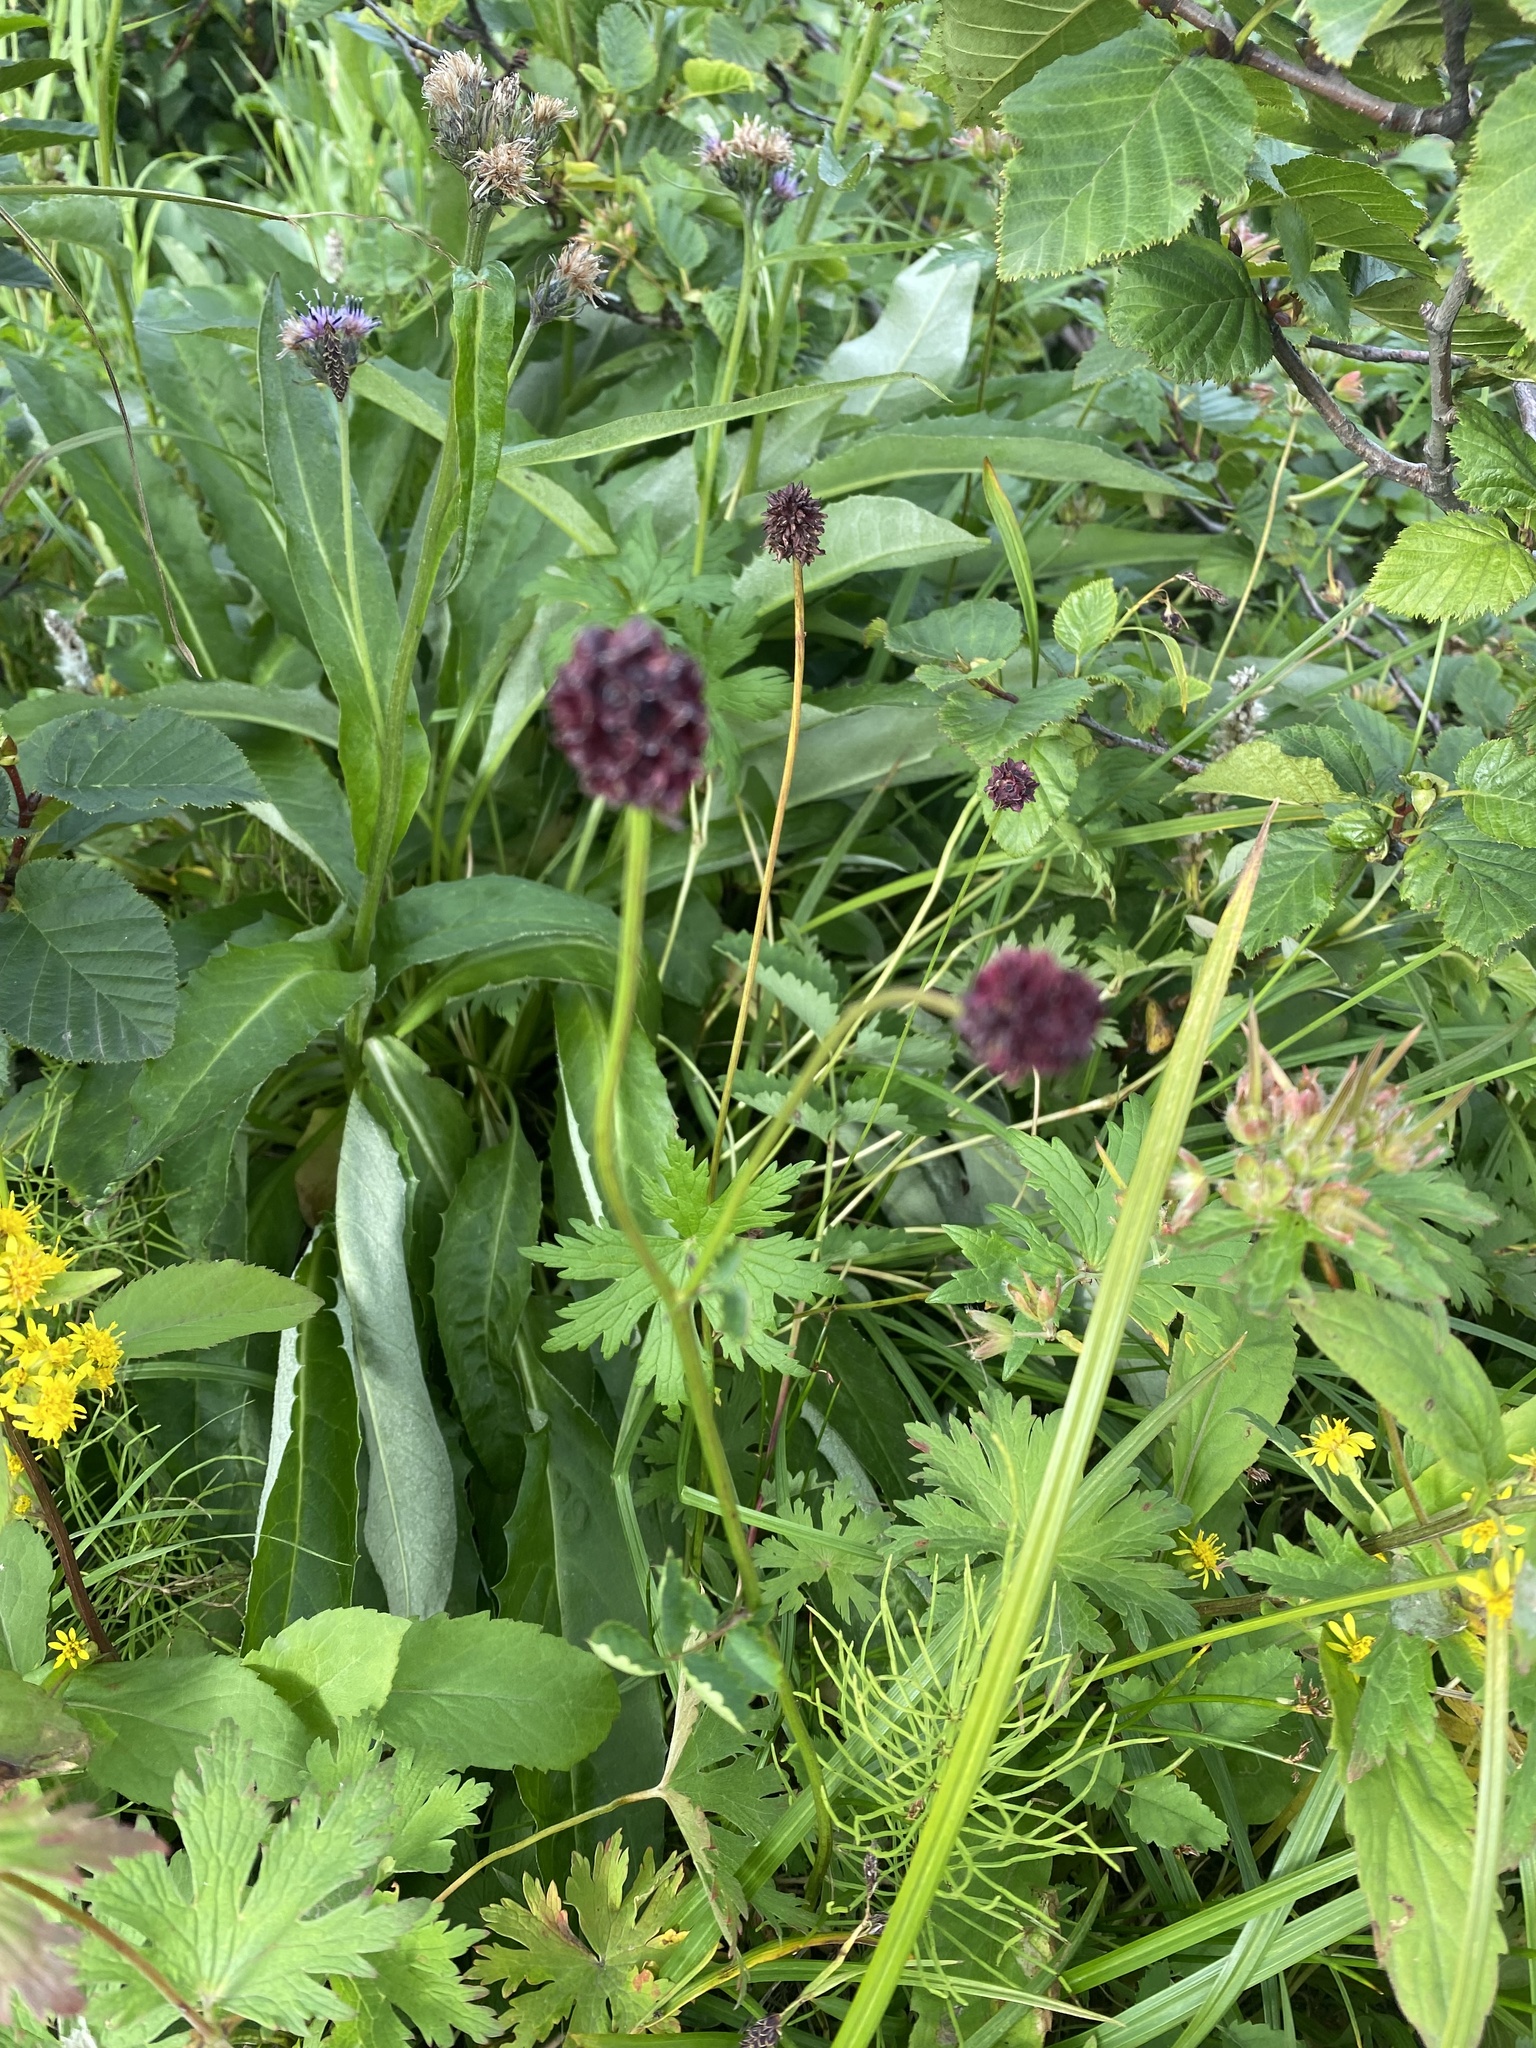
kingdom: Plantae
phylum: Tracheophyta
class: Magnoliopsida
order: Rosales
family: Rosaceae
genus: Sanguisorba
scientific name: Sanguisorba officinalis
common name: Great burnet
